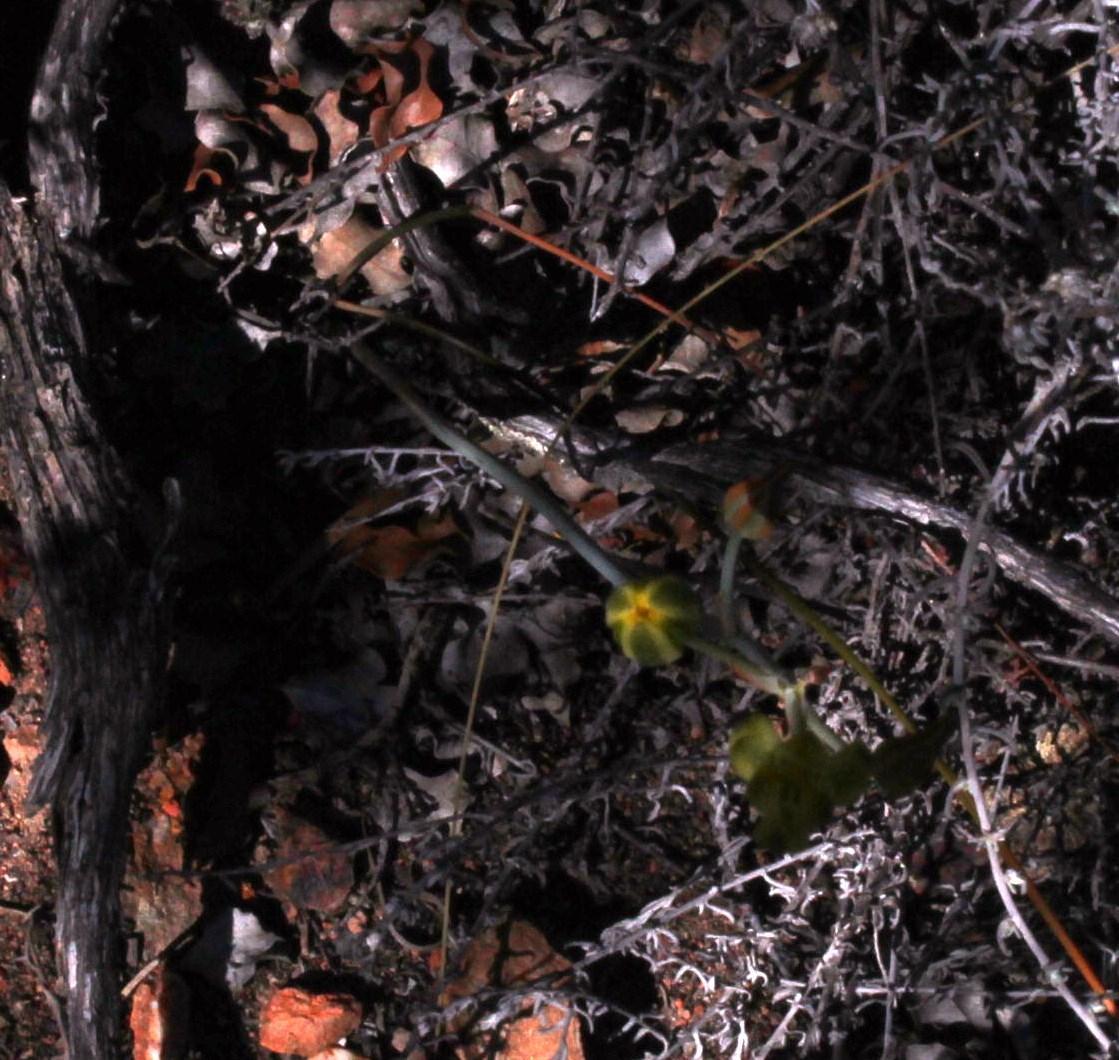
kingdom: Plantae
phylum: Tracheophyta
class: Liliopsida
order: Asparagales
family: Asparagaceae
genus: Albuca
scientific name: Albuca longipes
